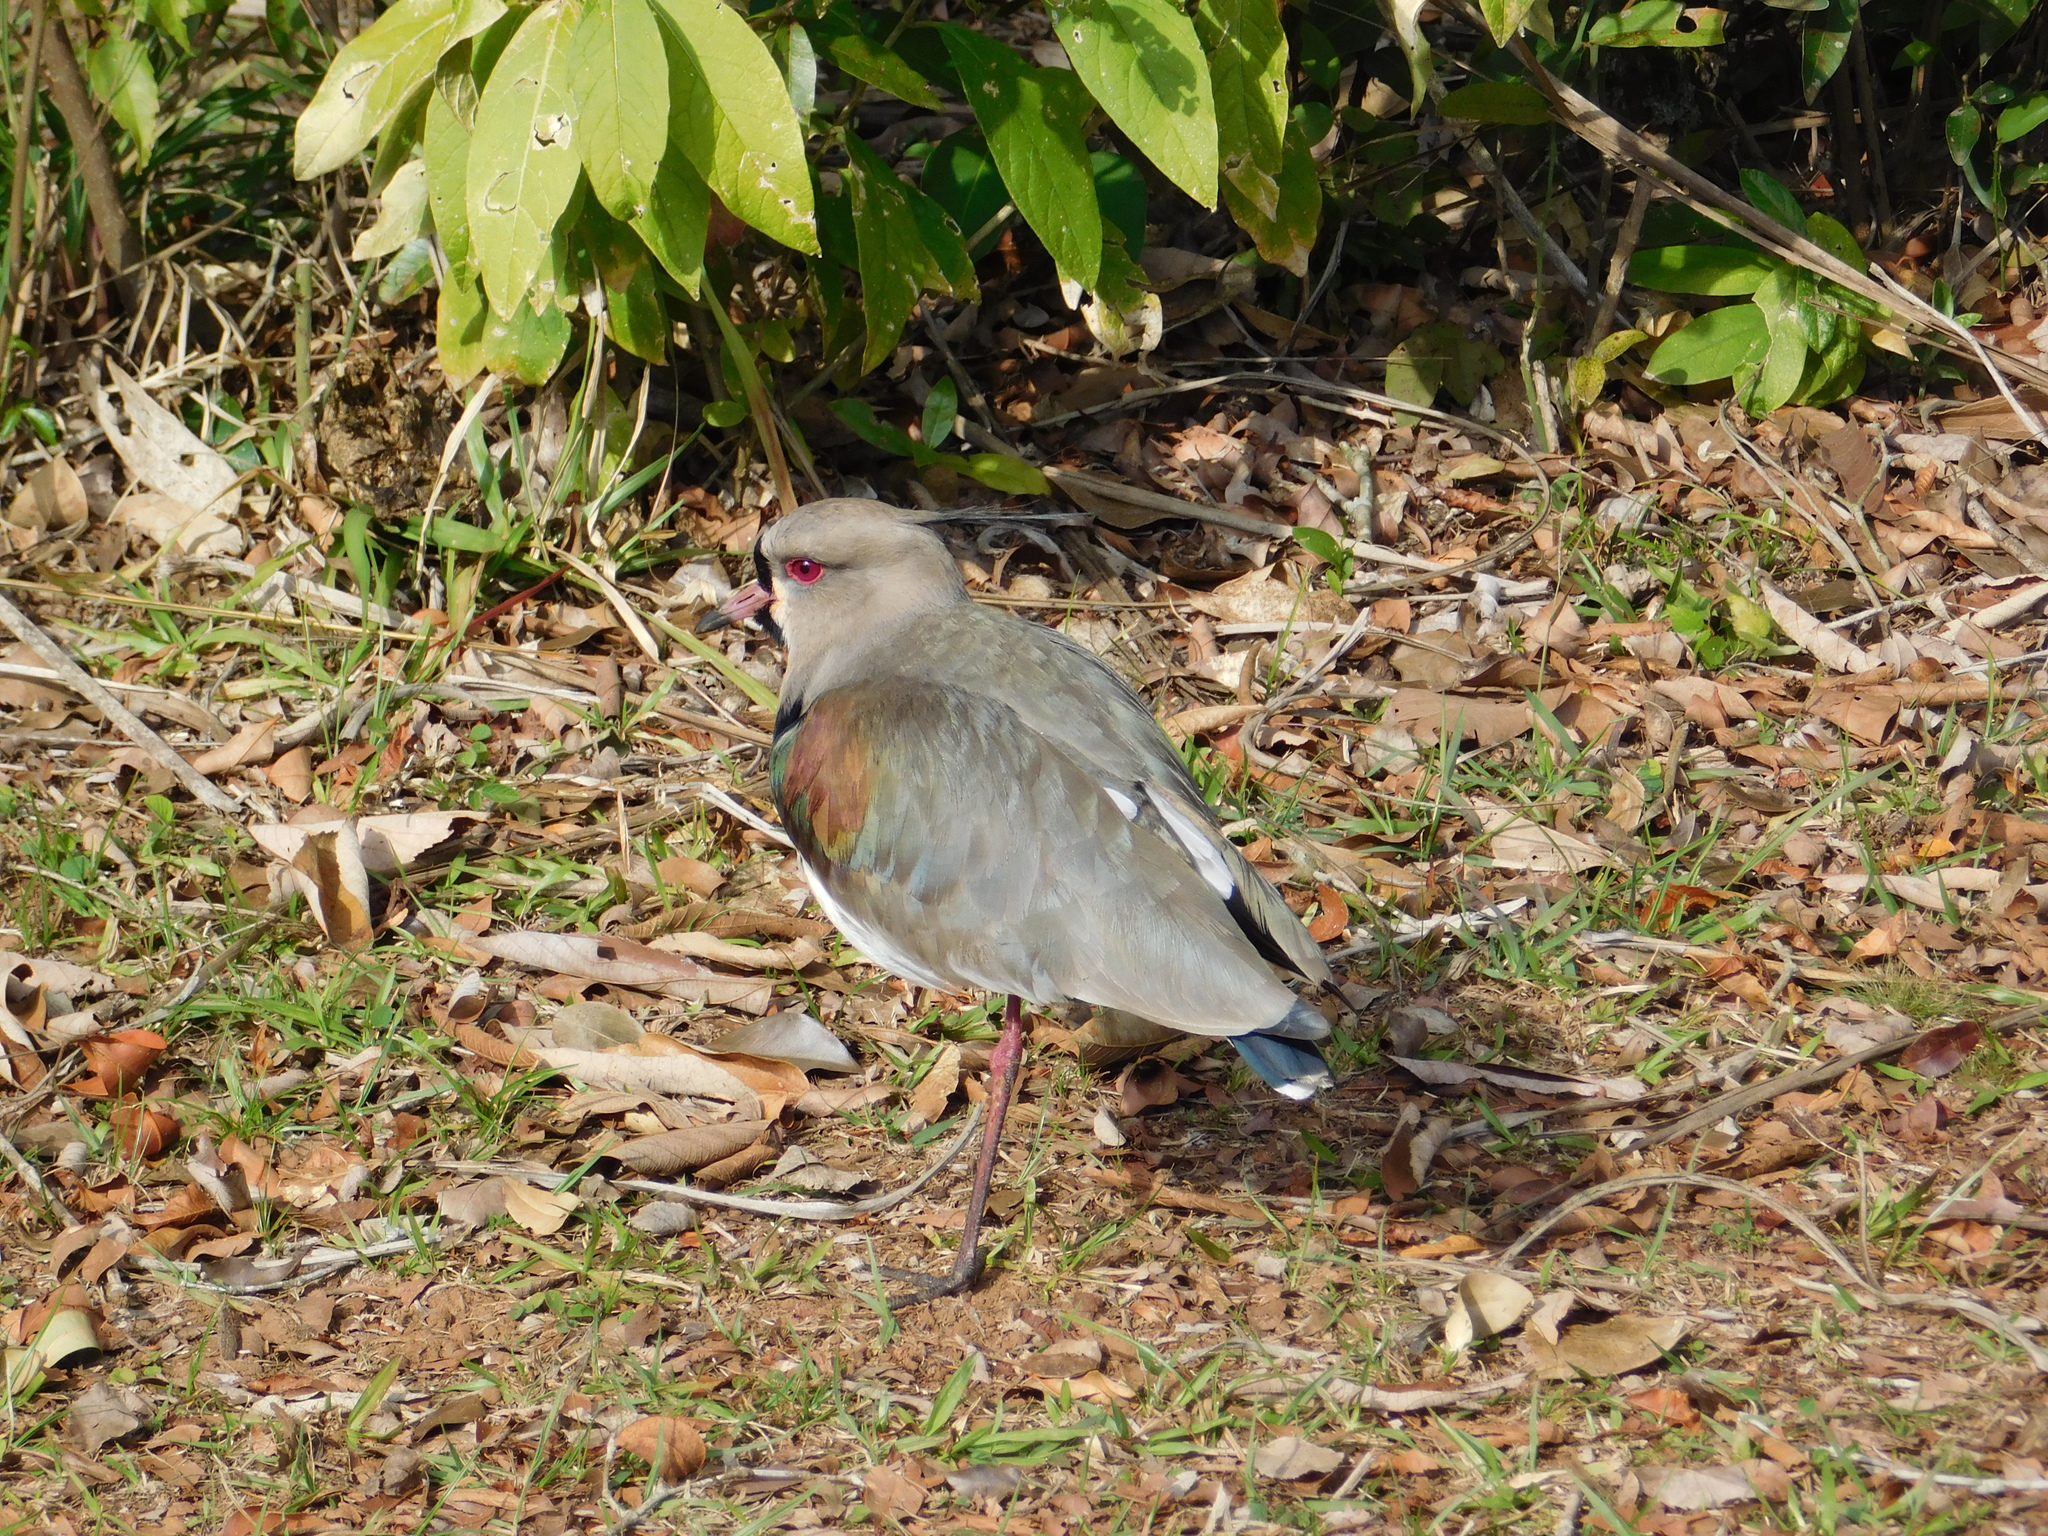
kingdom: Animalia
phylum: Chordata
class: Aves
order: Charadriiformes
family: Charadriidae
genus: Vanellus
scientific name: Vanellus chilensis
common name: Southern lapwing
